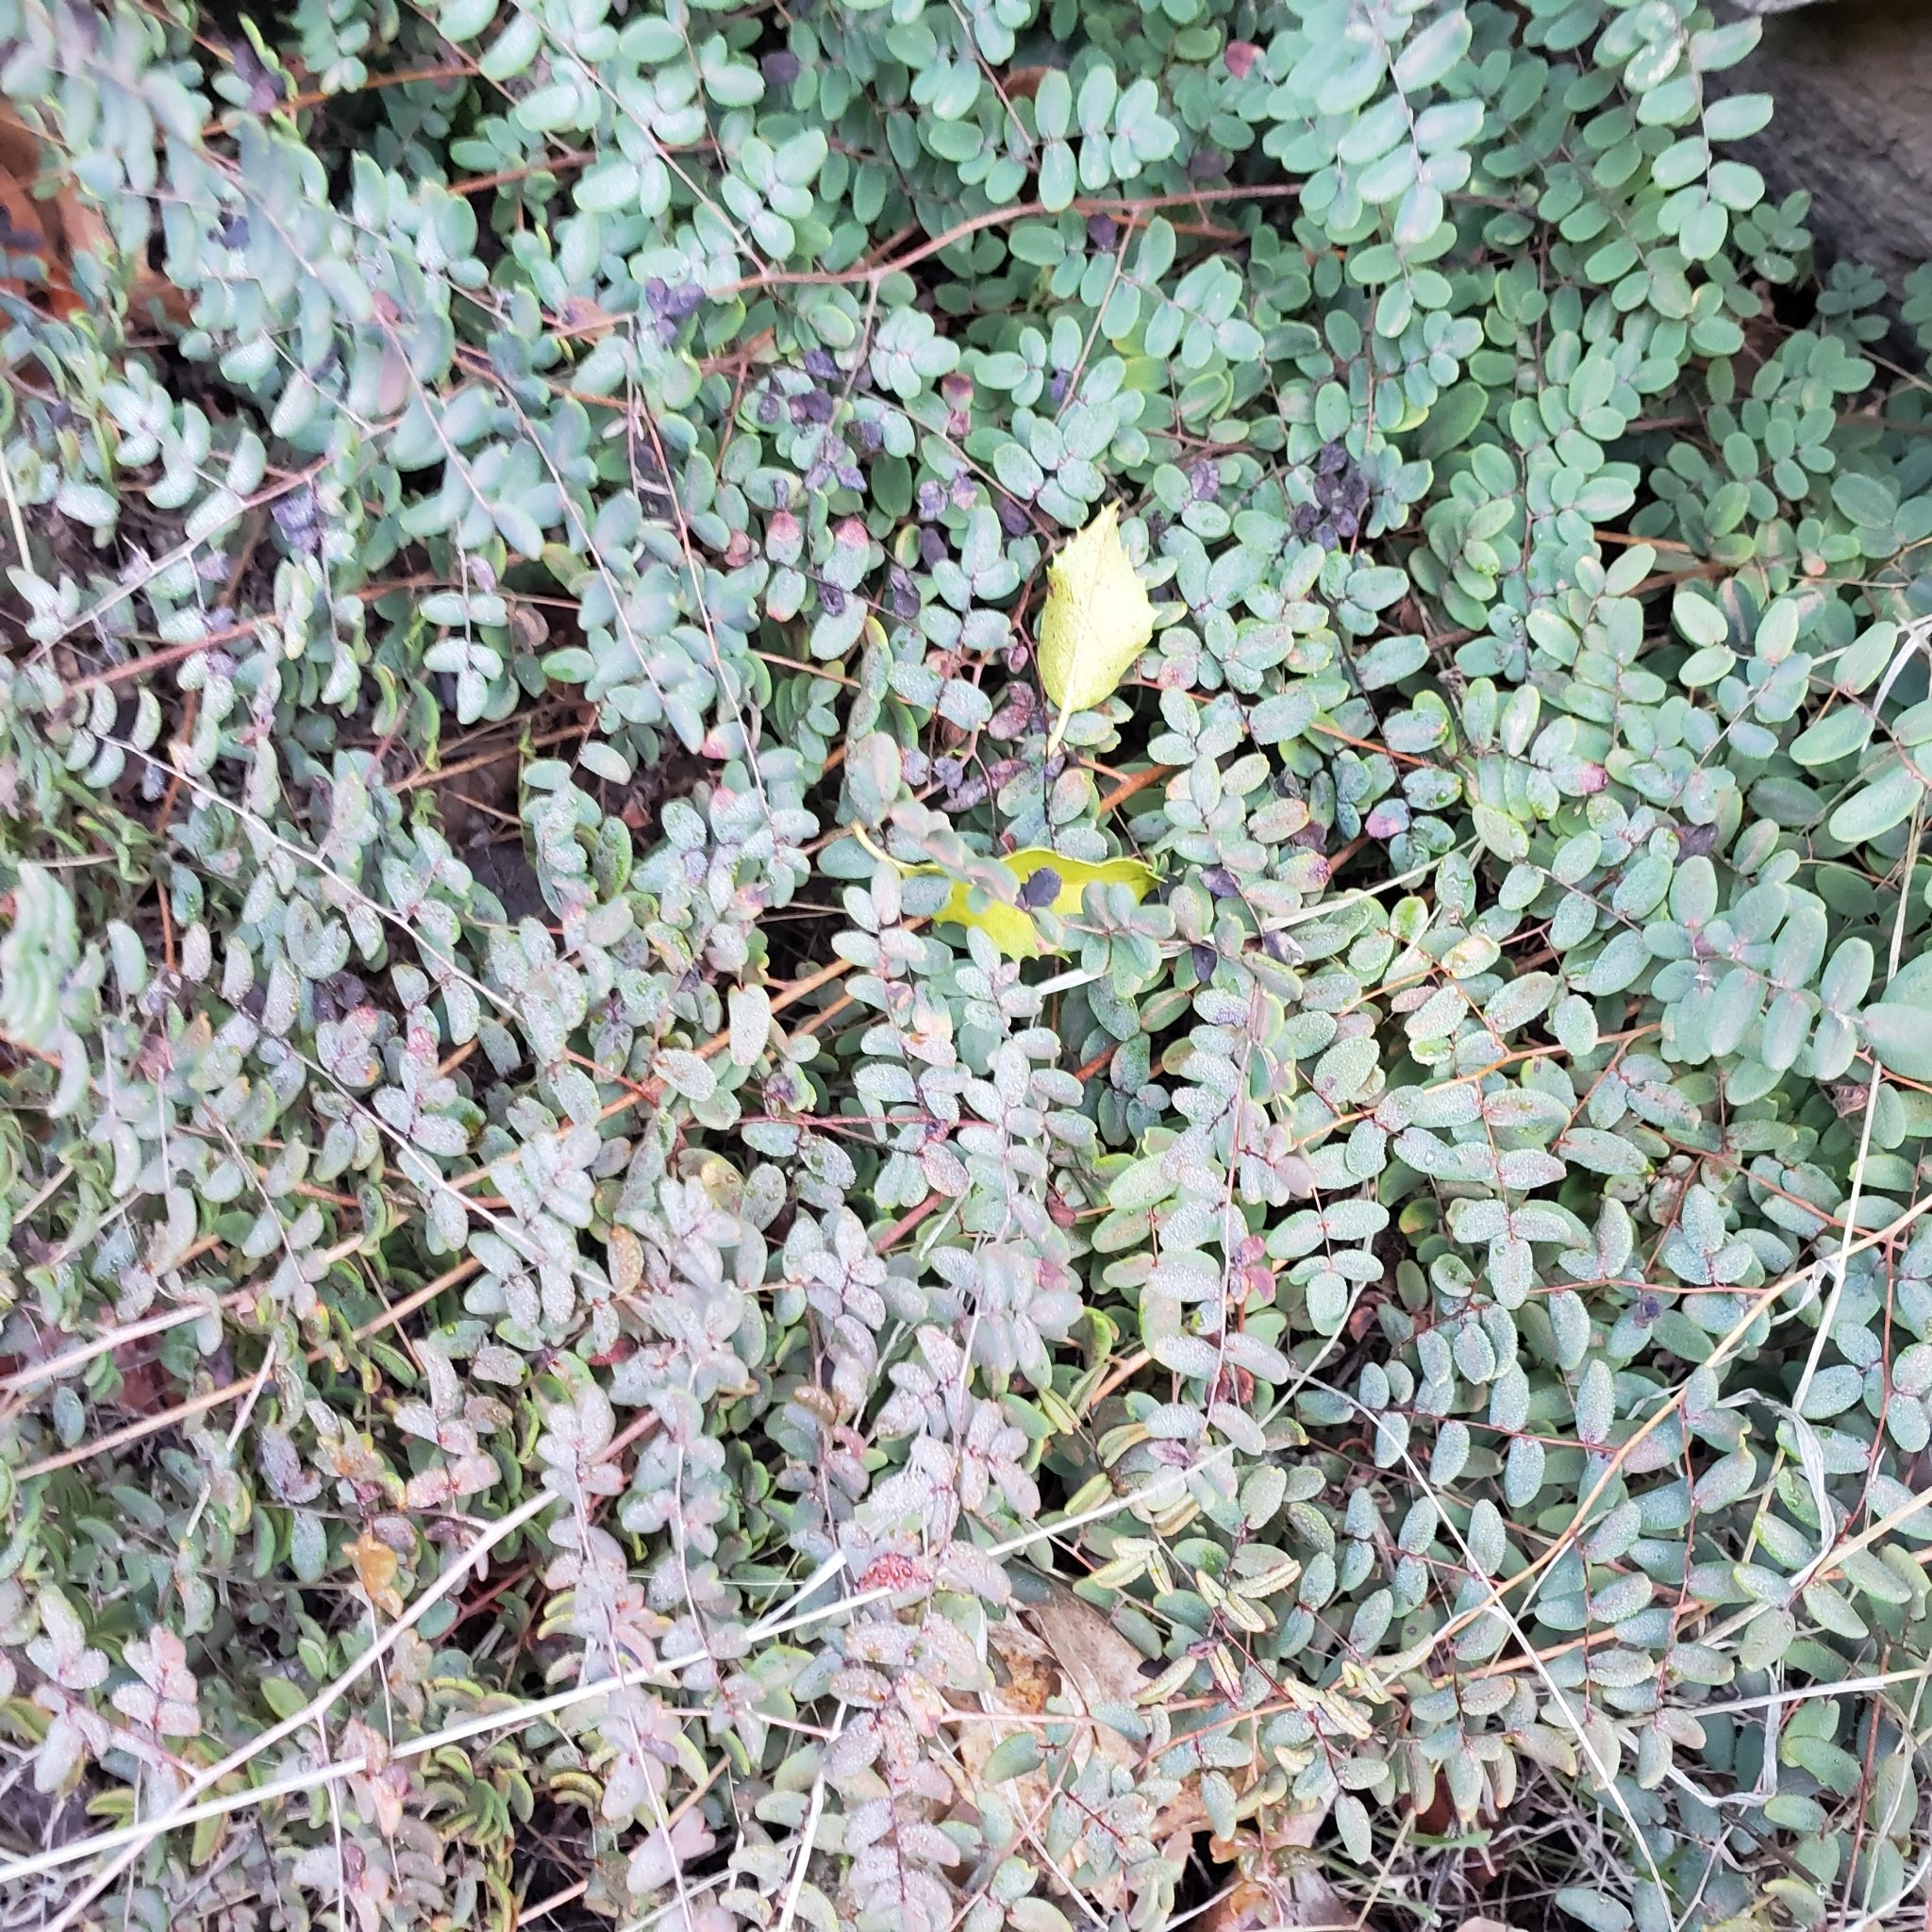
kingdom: Plantae
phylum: Tracheophyta
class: Polypodiopsida
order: Polypodiales
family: Pteridaceae
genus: Pellaea
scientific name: Pellaea andromedifolia
